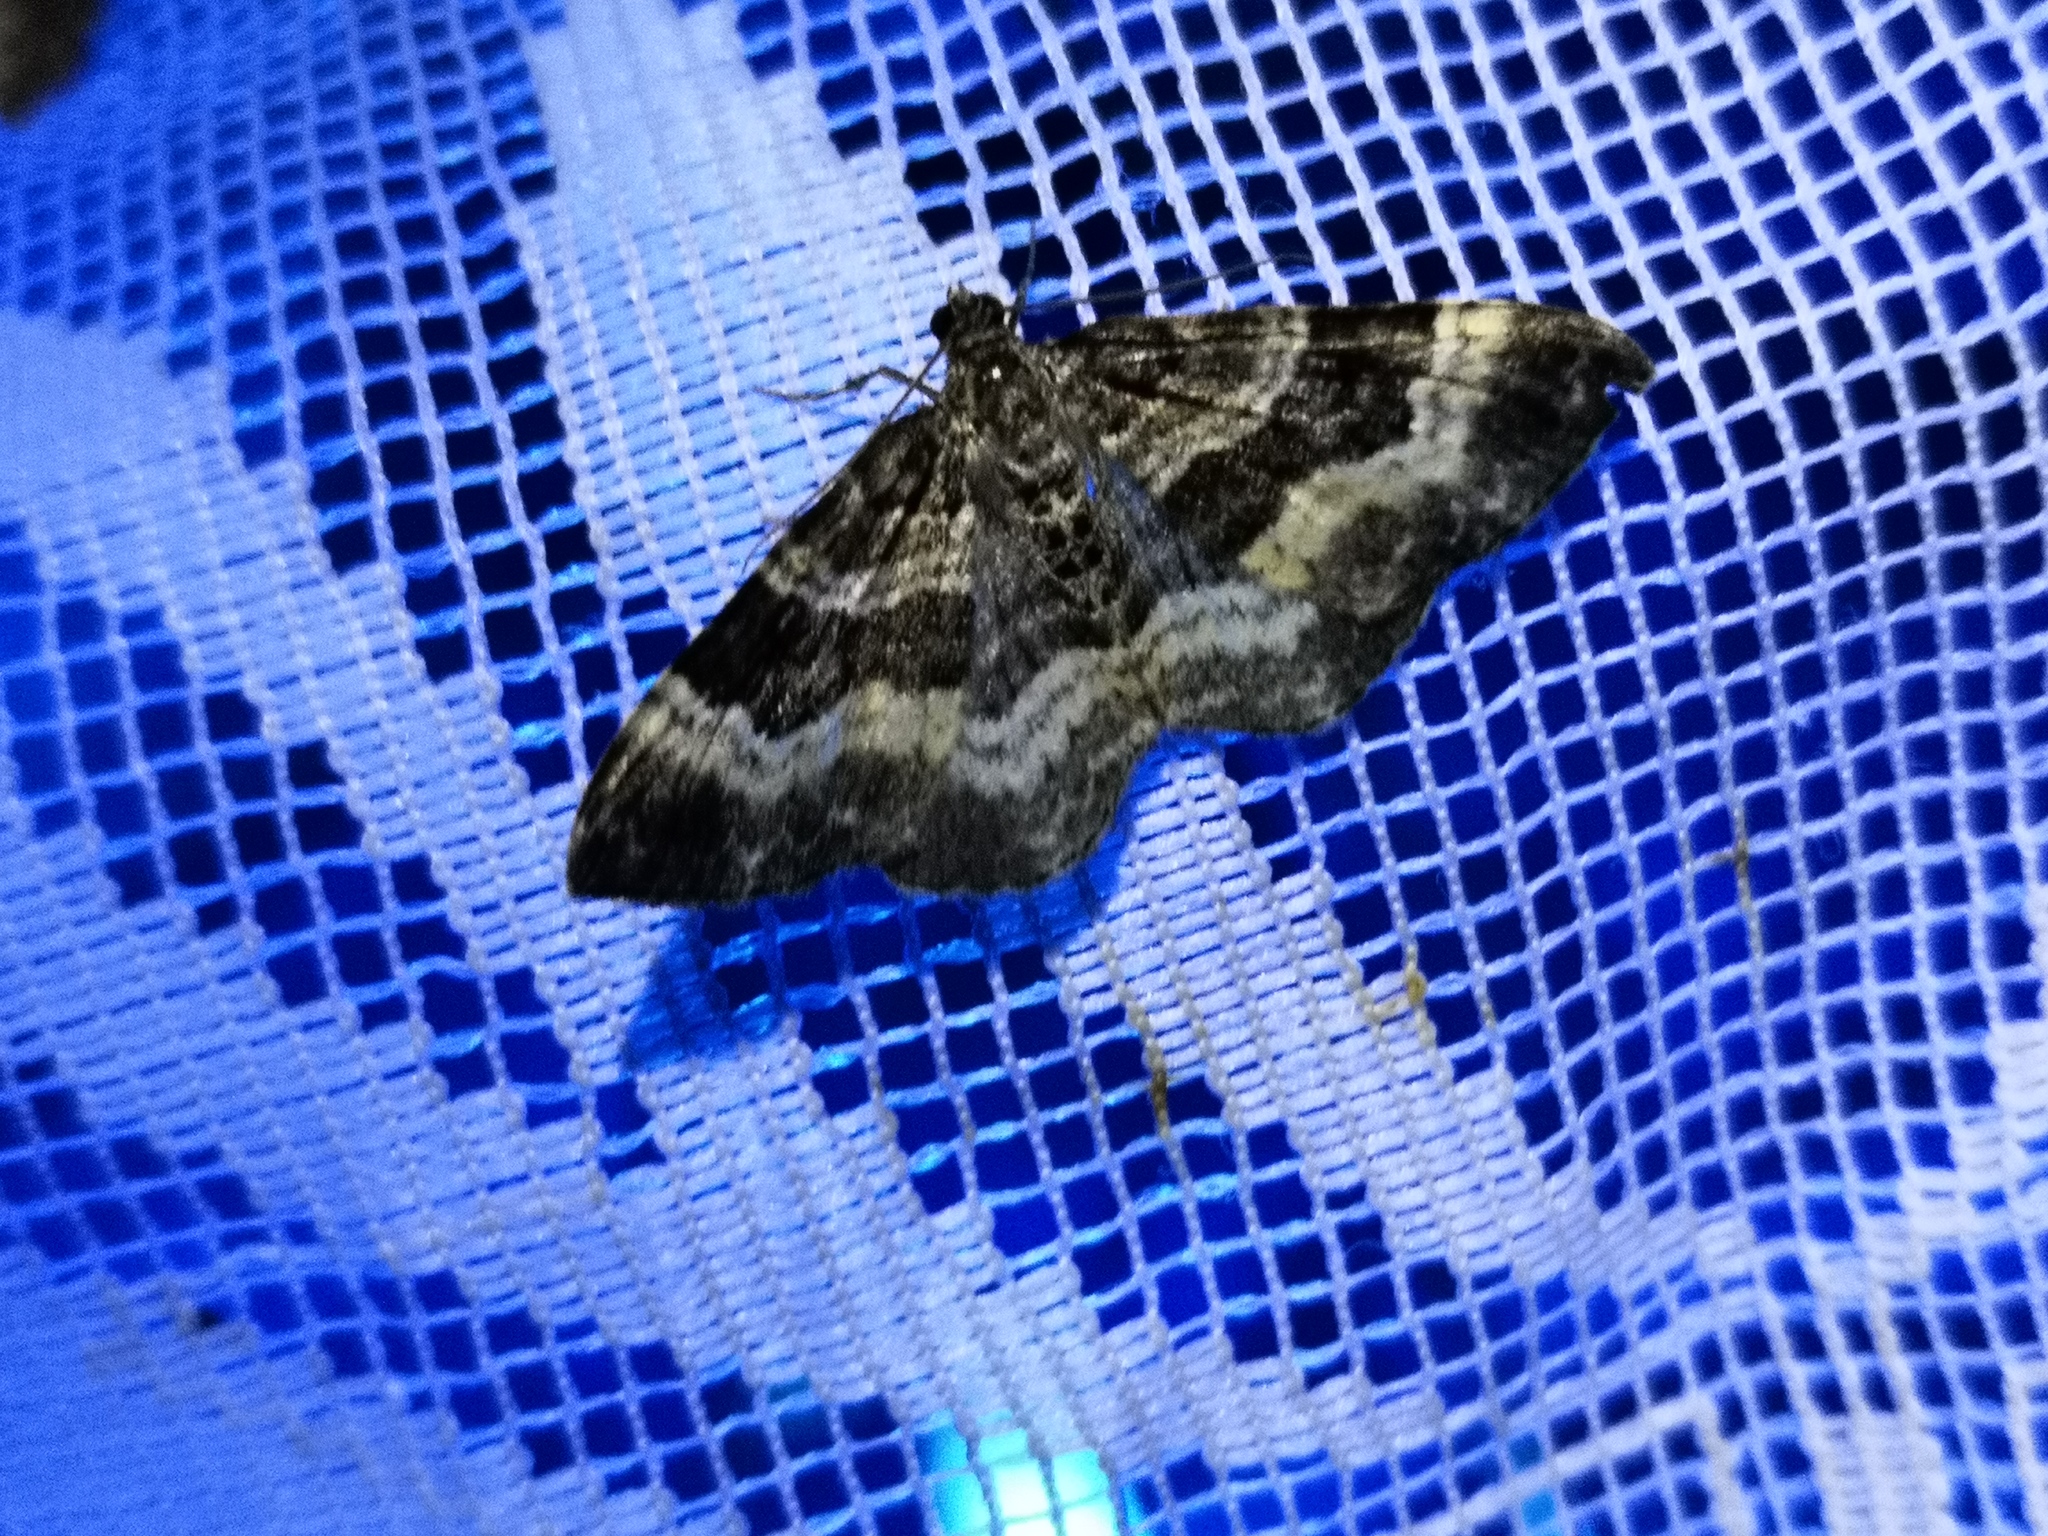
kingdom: Animalia
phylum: Arthropoda
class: Insecta
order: Lepidoptera
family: Geometridae
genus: Epirrhoe
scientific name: Epirrhoe alternata
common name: Common carpet
